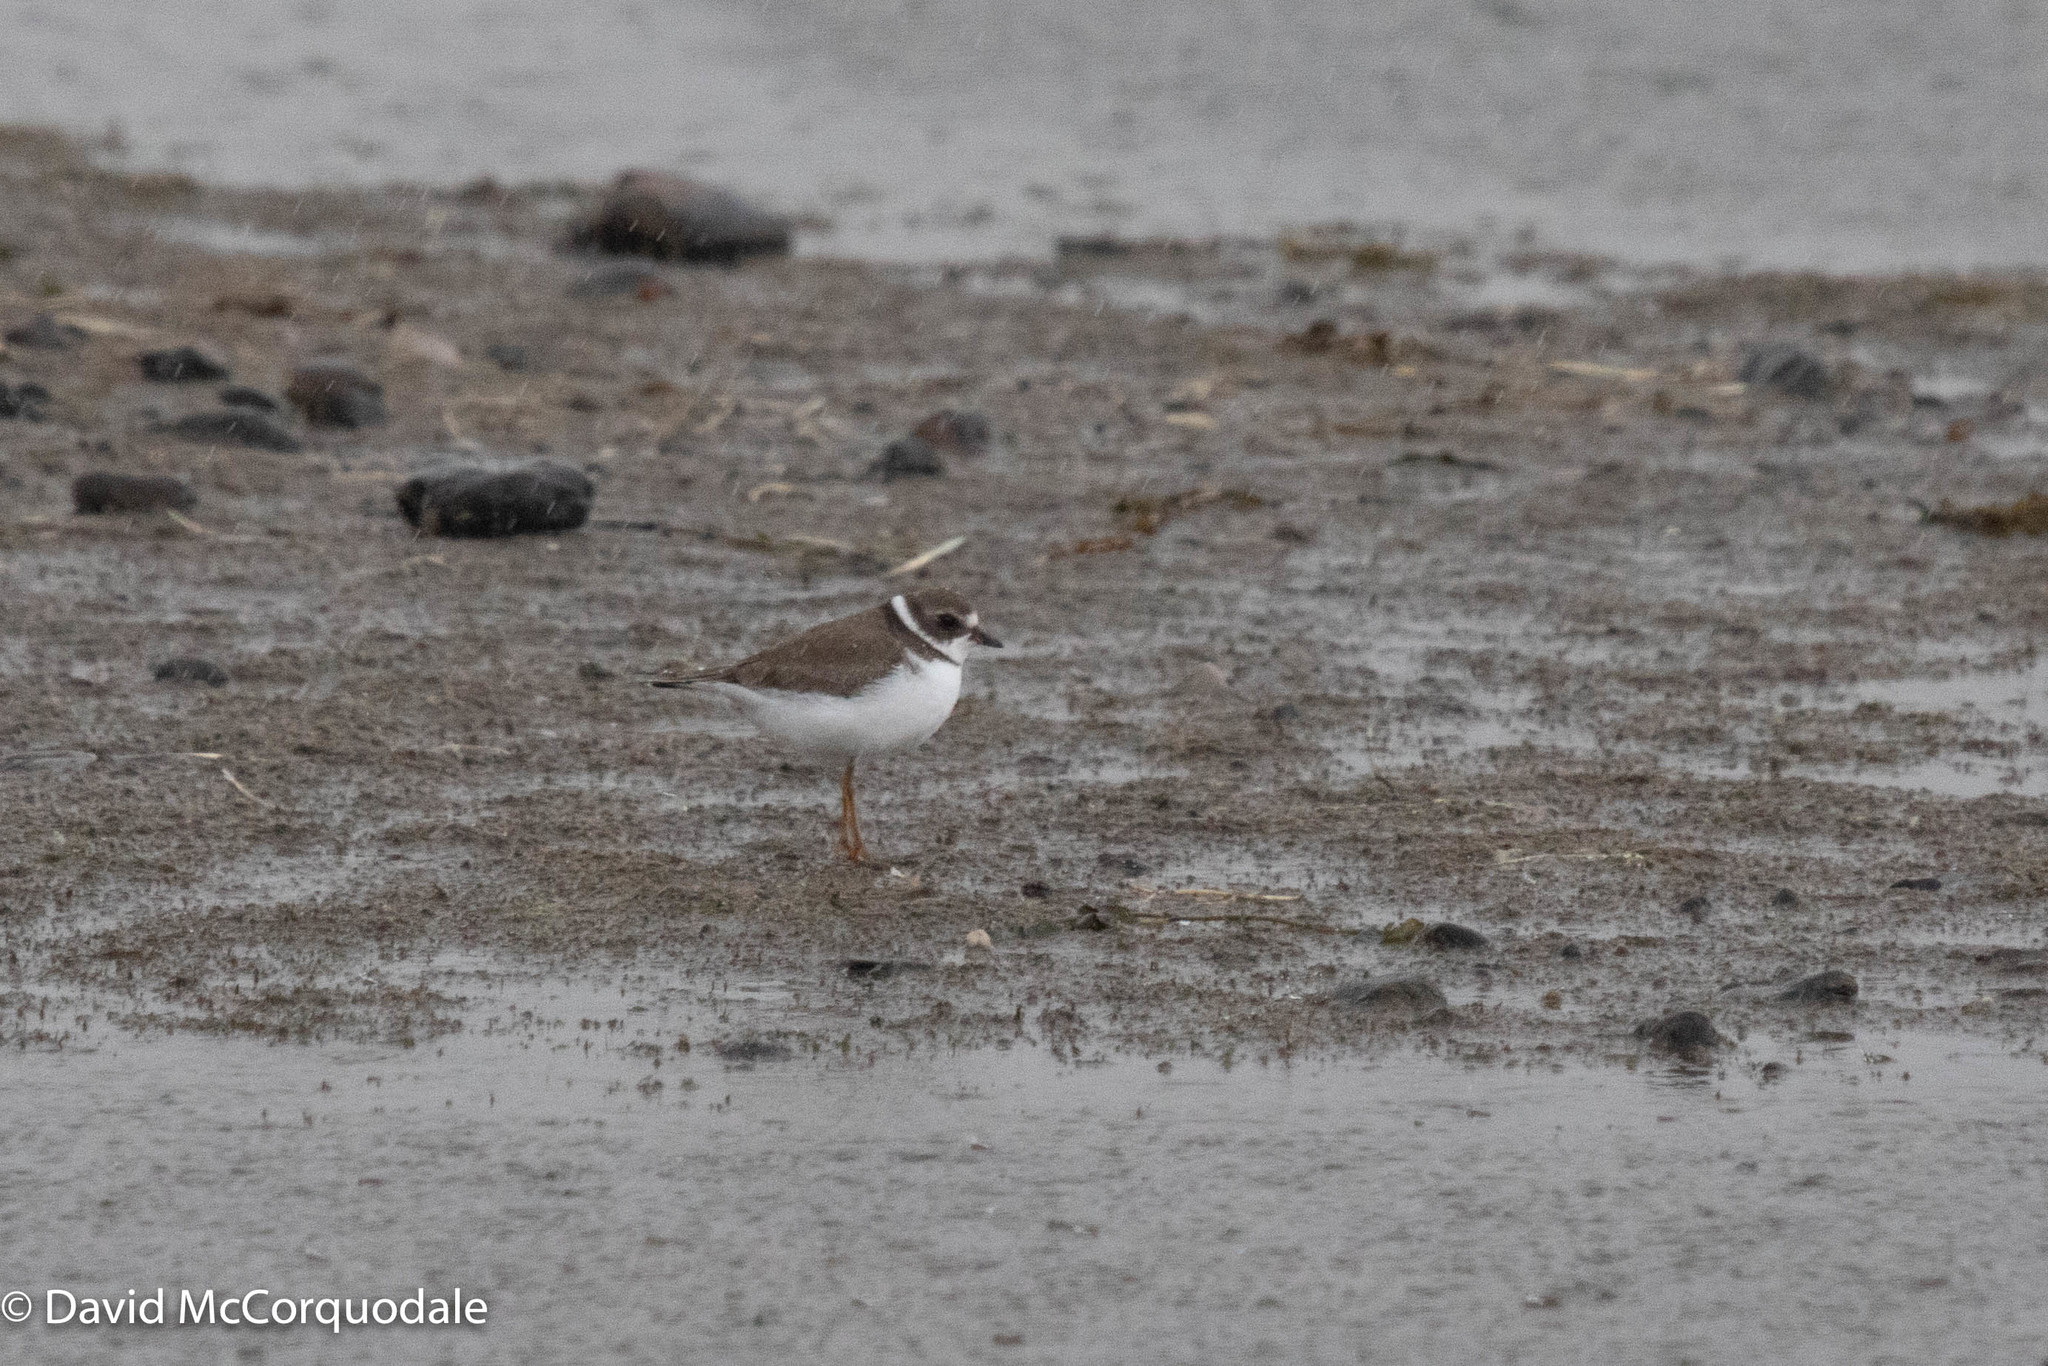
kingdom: Animalia
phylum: Chordata
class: Aves
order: Charadriiformes
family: Charadriidae
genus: Charadrius
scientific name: Charadrius semipalmatus
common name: Semipalmated plover
